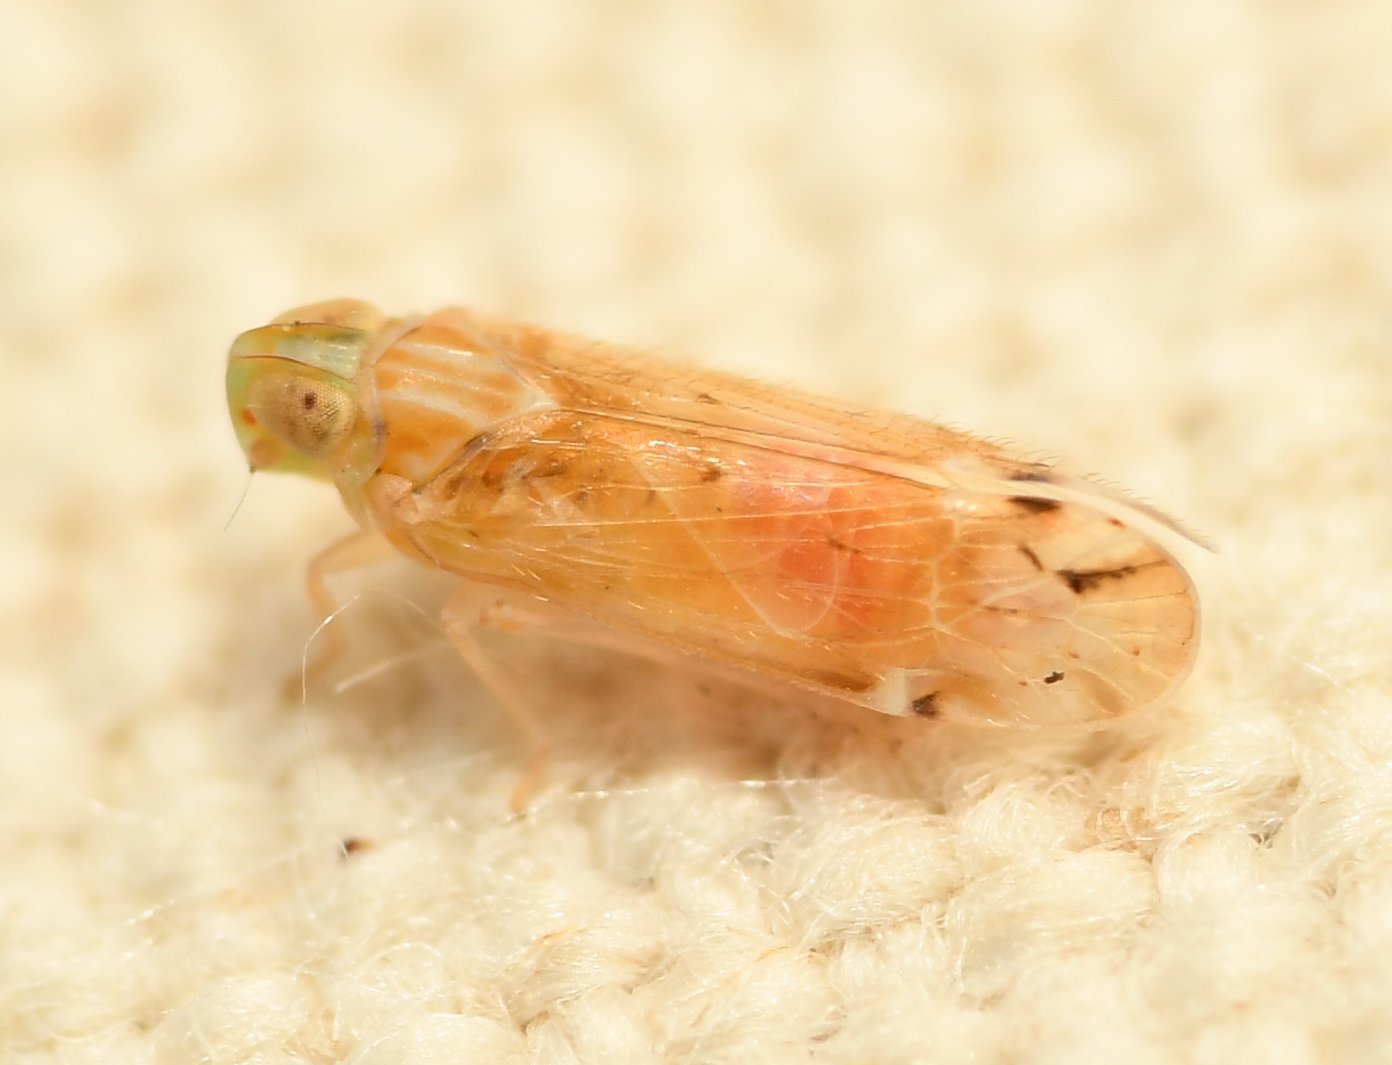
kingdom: Animalia
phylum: Arthropoda
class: Insecta
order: Hemiptera
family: Cixiidae
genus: Haplaxius
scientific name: Haplaxius lunatus
